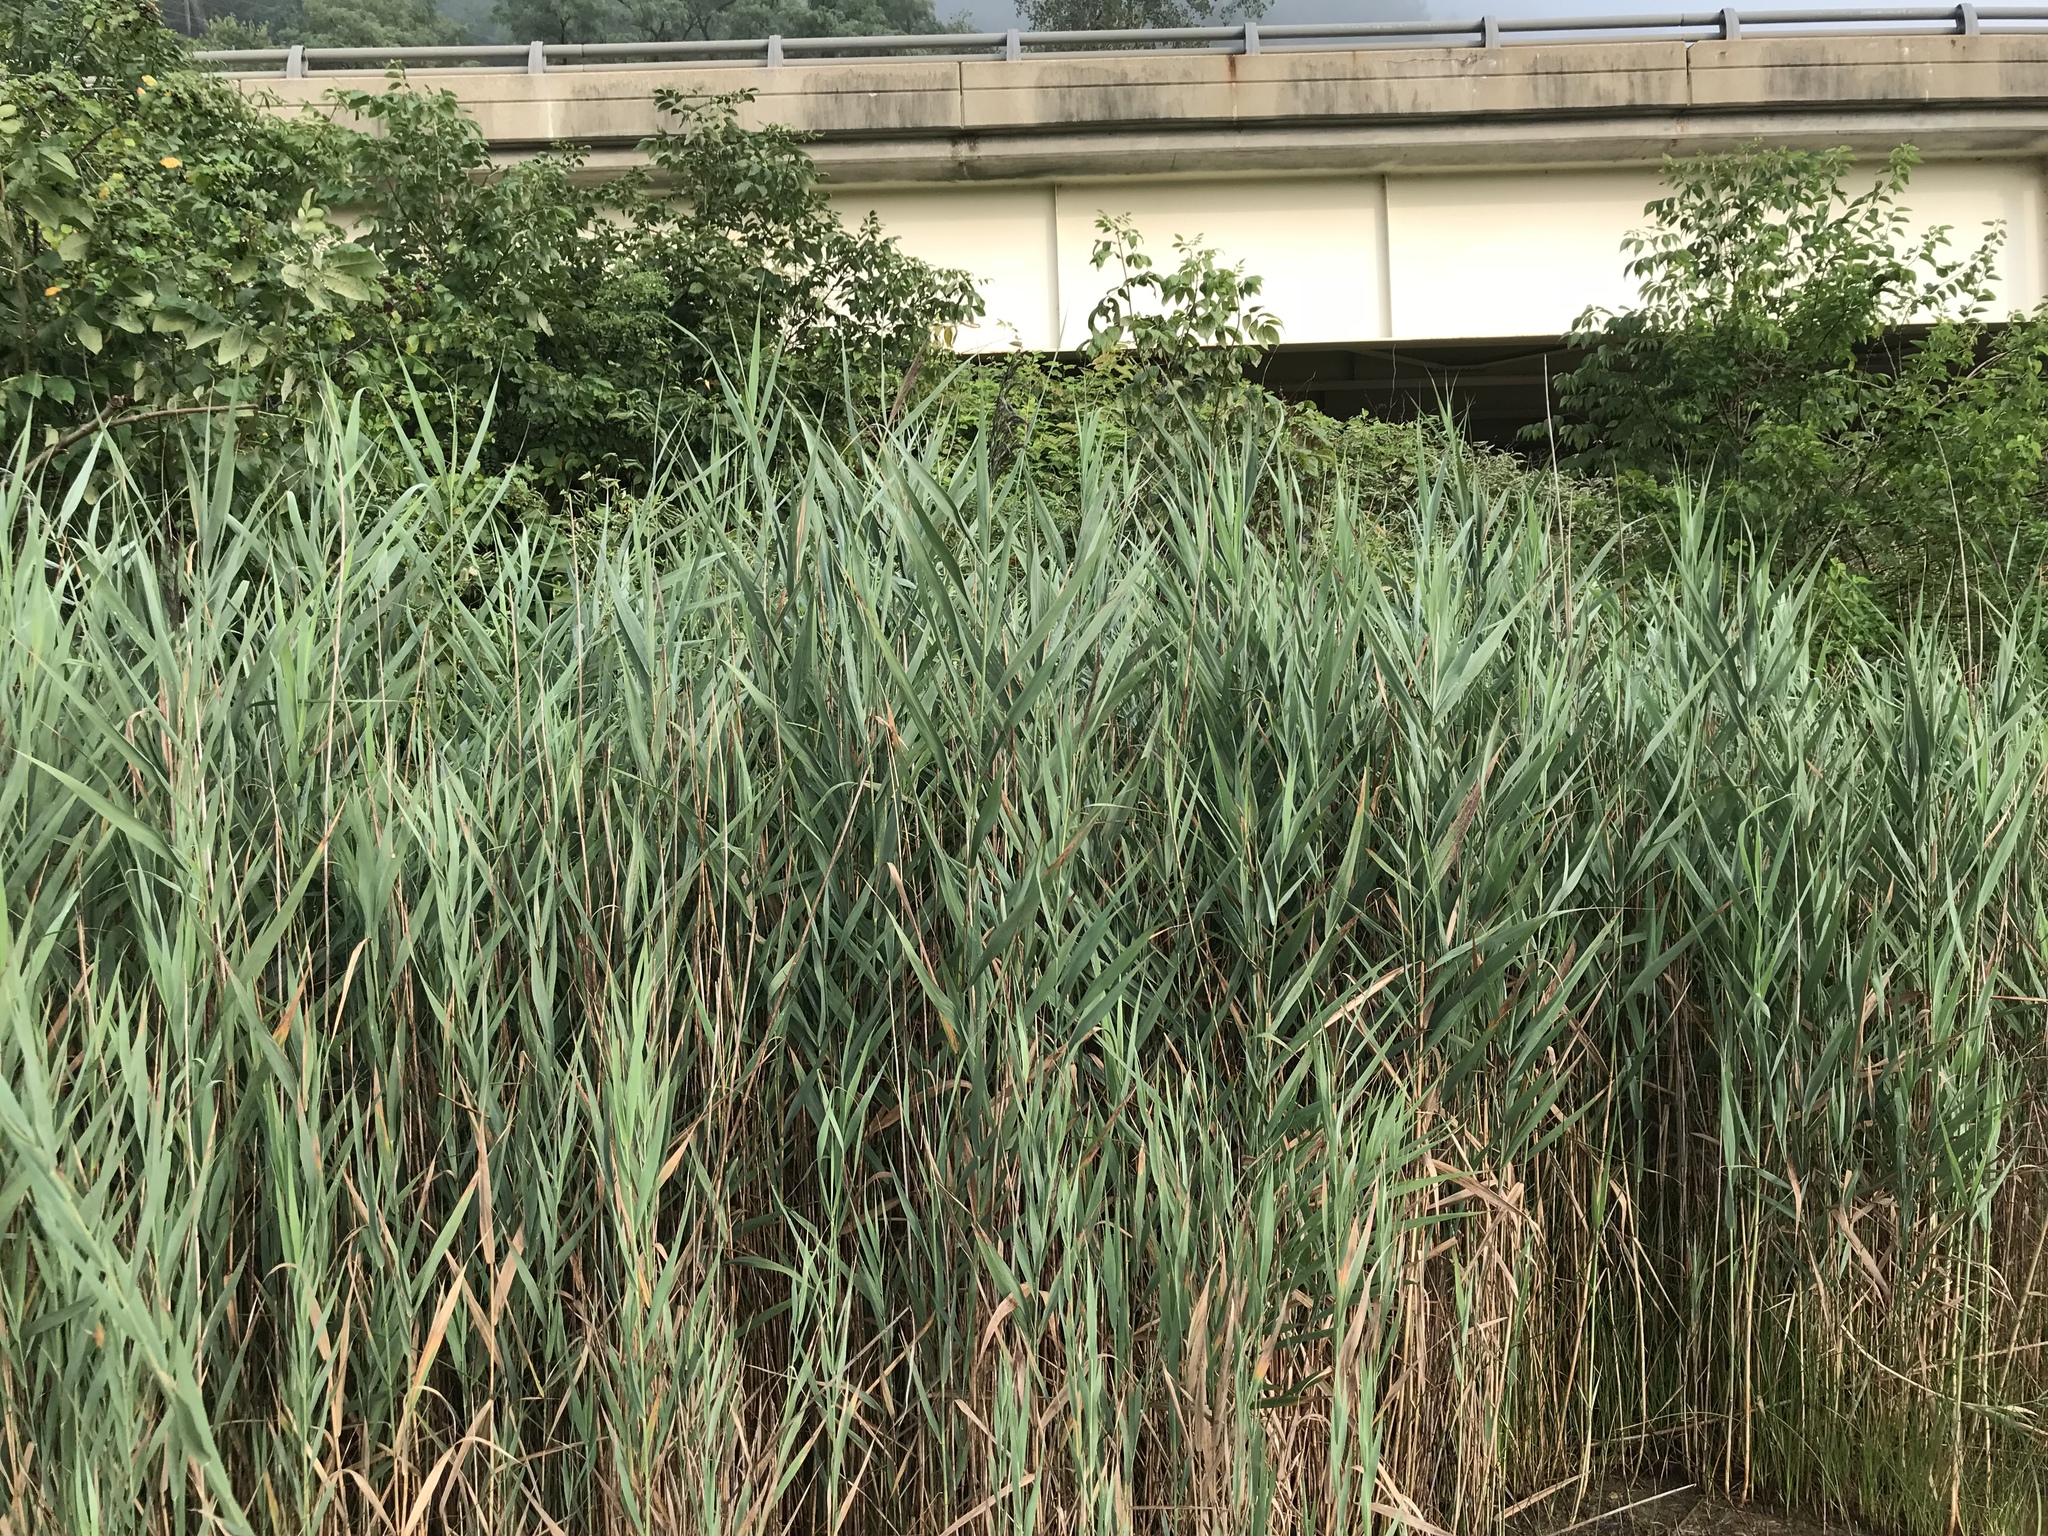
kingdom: Plantae
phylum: Tracheophyta
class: Liliopsida
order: Poales
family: Poaceae
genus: Phragmites
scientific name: Phragmites australis
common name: Common reed
